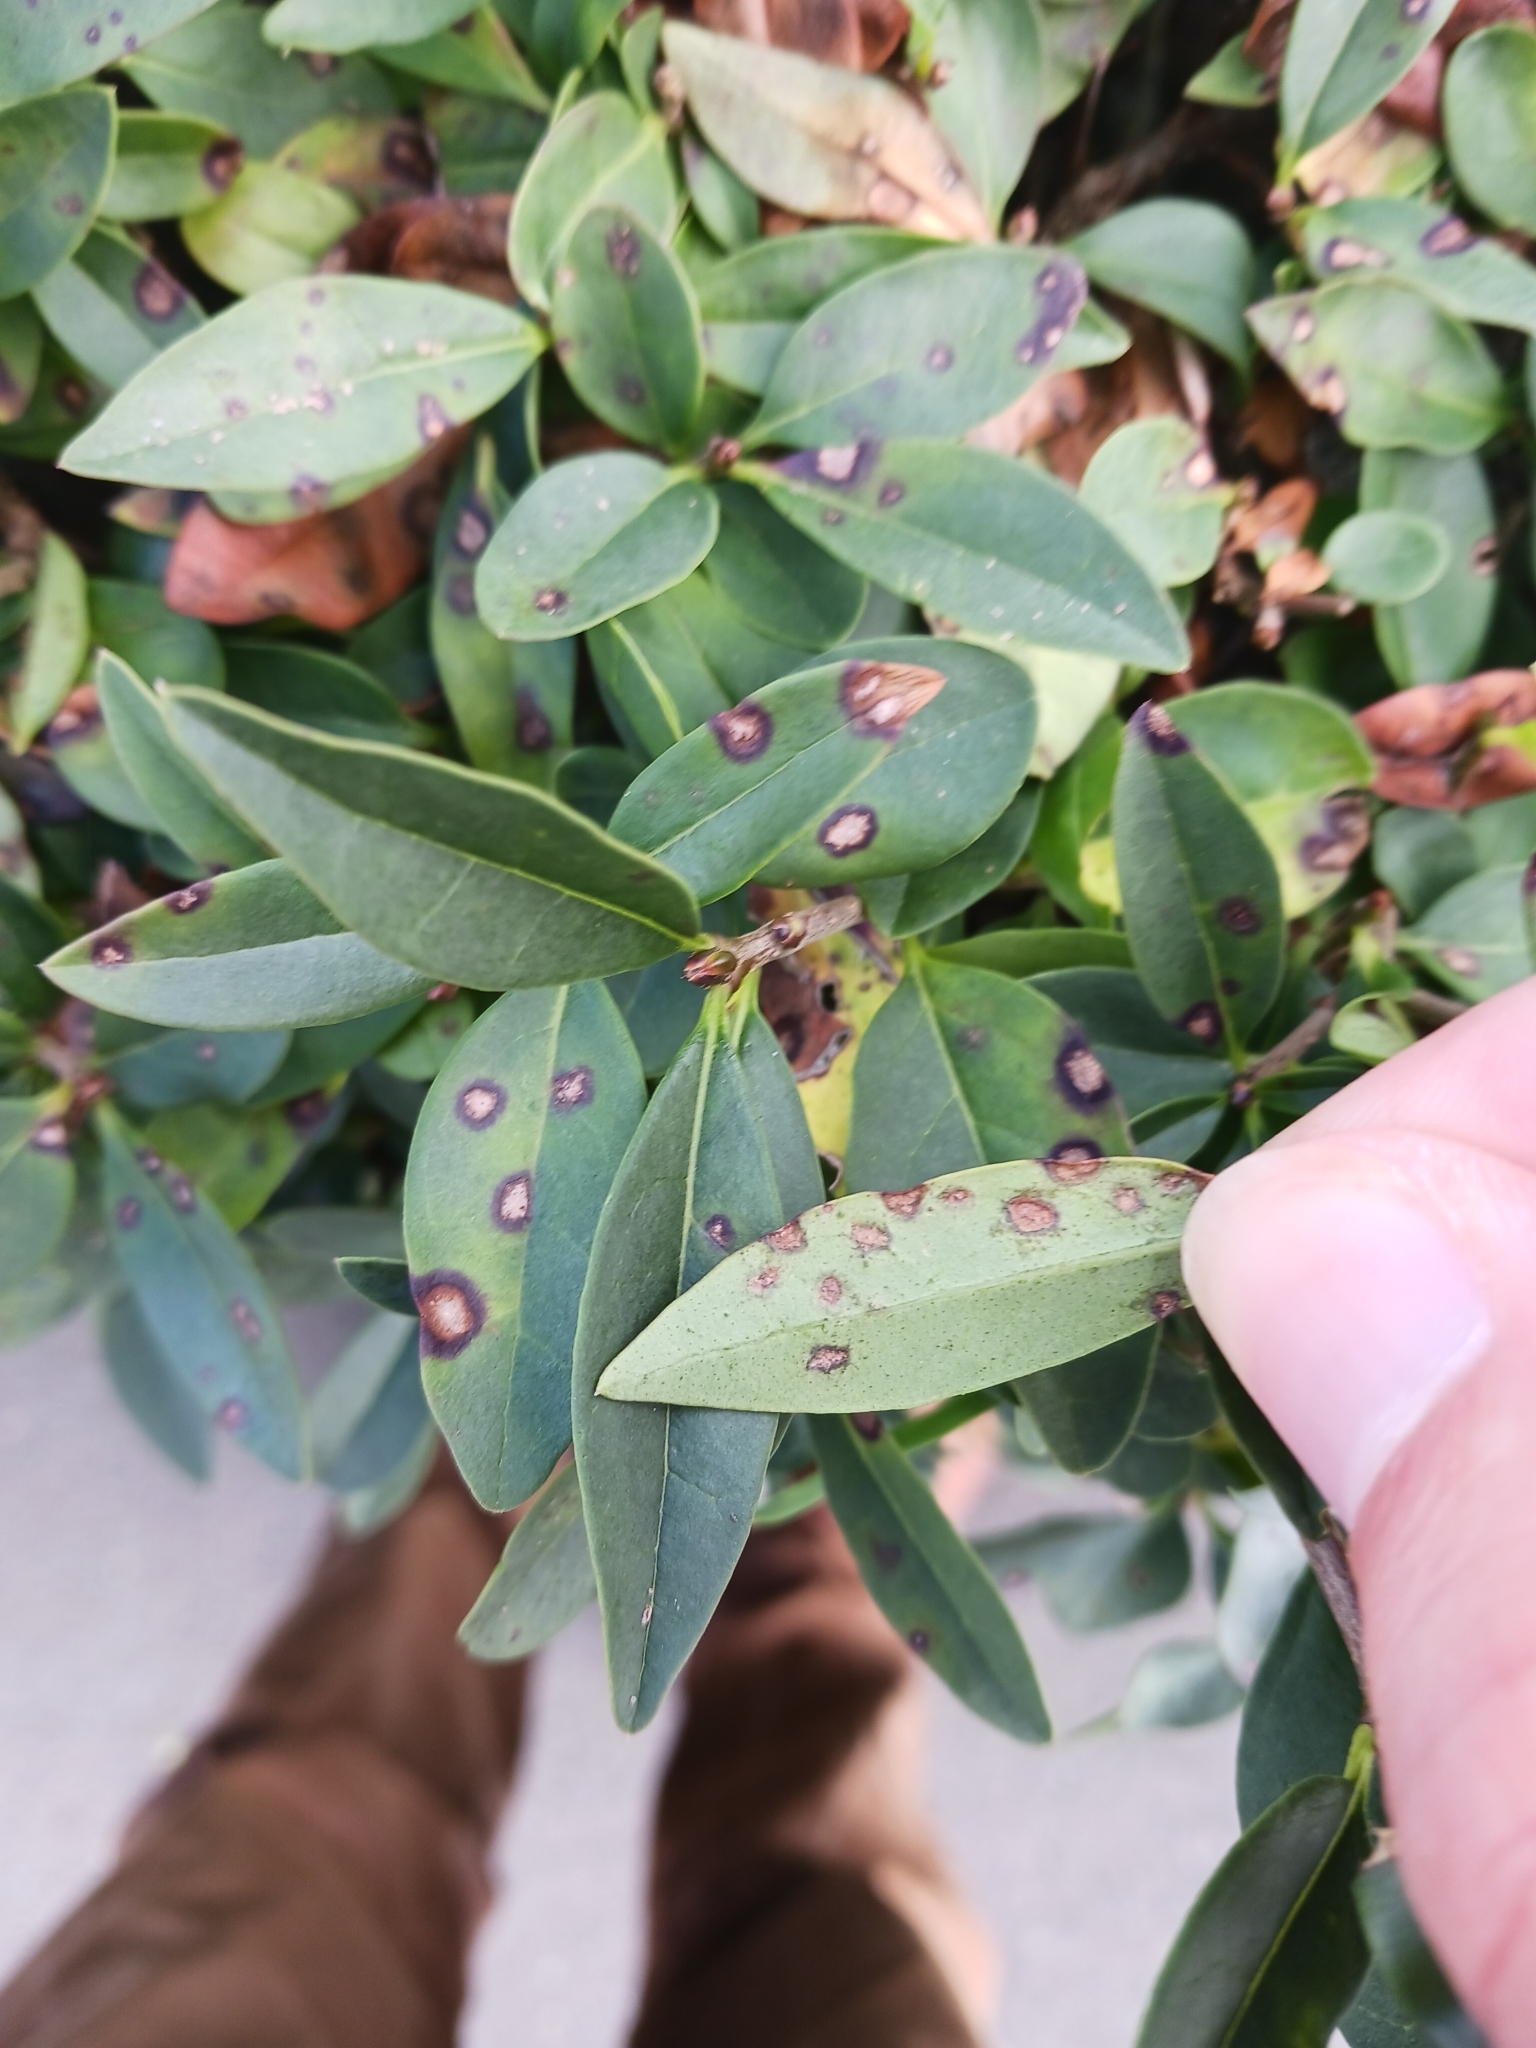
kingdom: Fungi
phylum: Ascomycota
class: Leotiomycetes
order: Helotiales
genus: Thedgonia
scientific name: Thedgonia ligustrina
